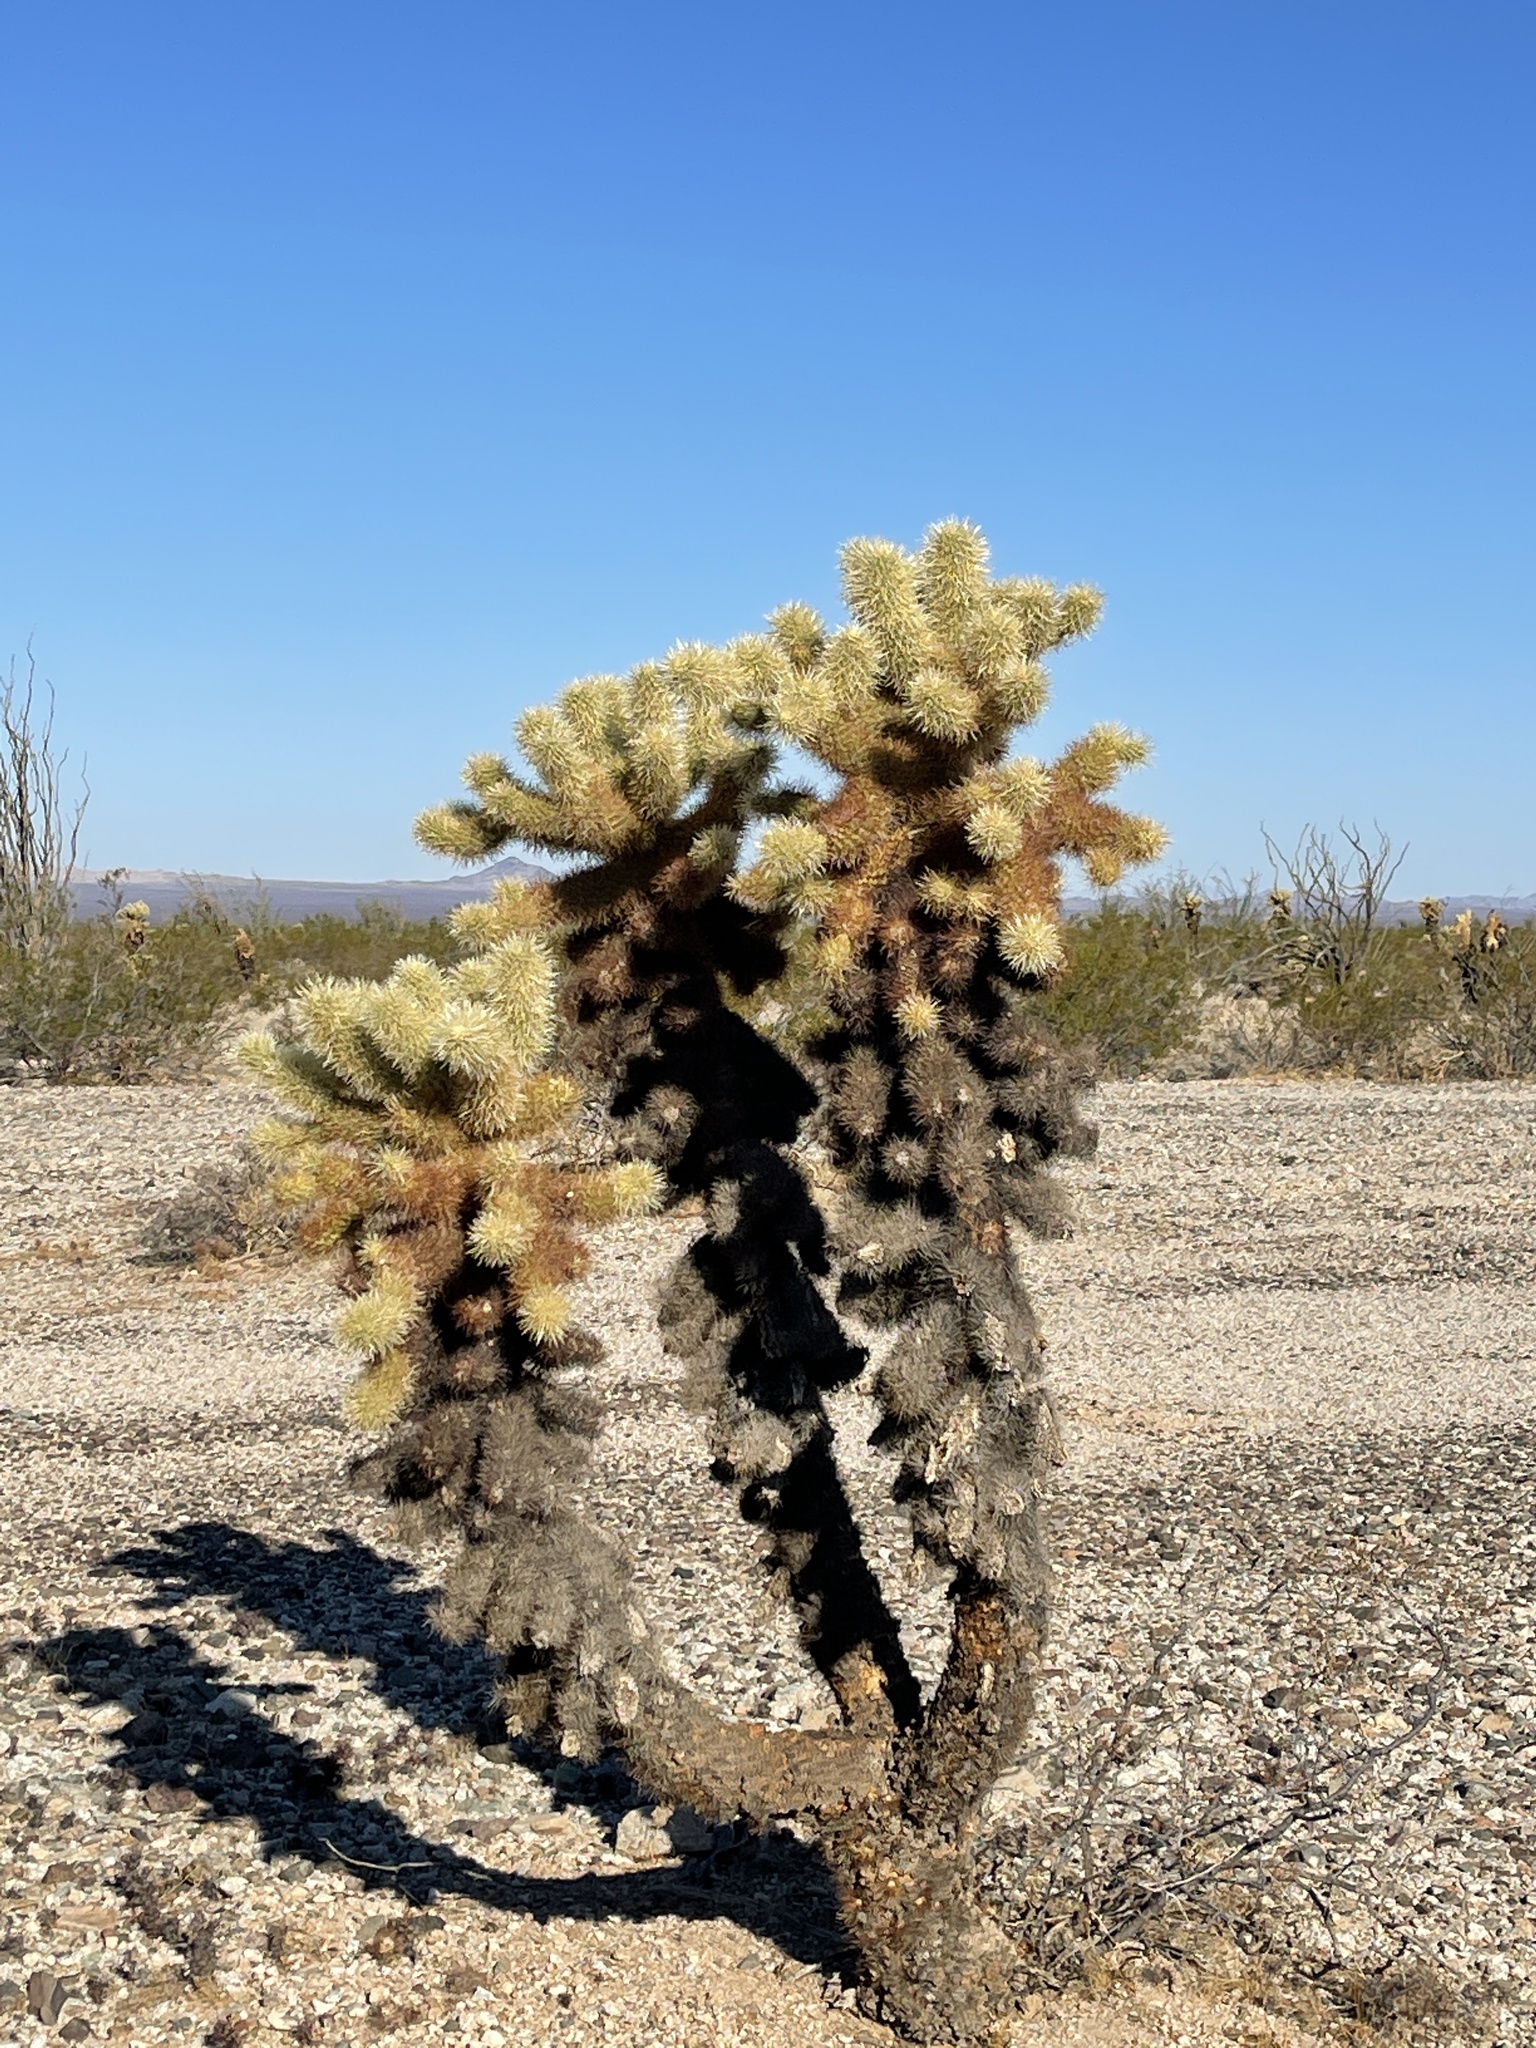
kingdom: Plantae
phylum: Tracheophyta
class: Magnoliopsida
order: Caryophyllales
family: Cactaceae
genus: Cylindropuntia
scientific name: Cylindropuntia fosbergii
